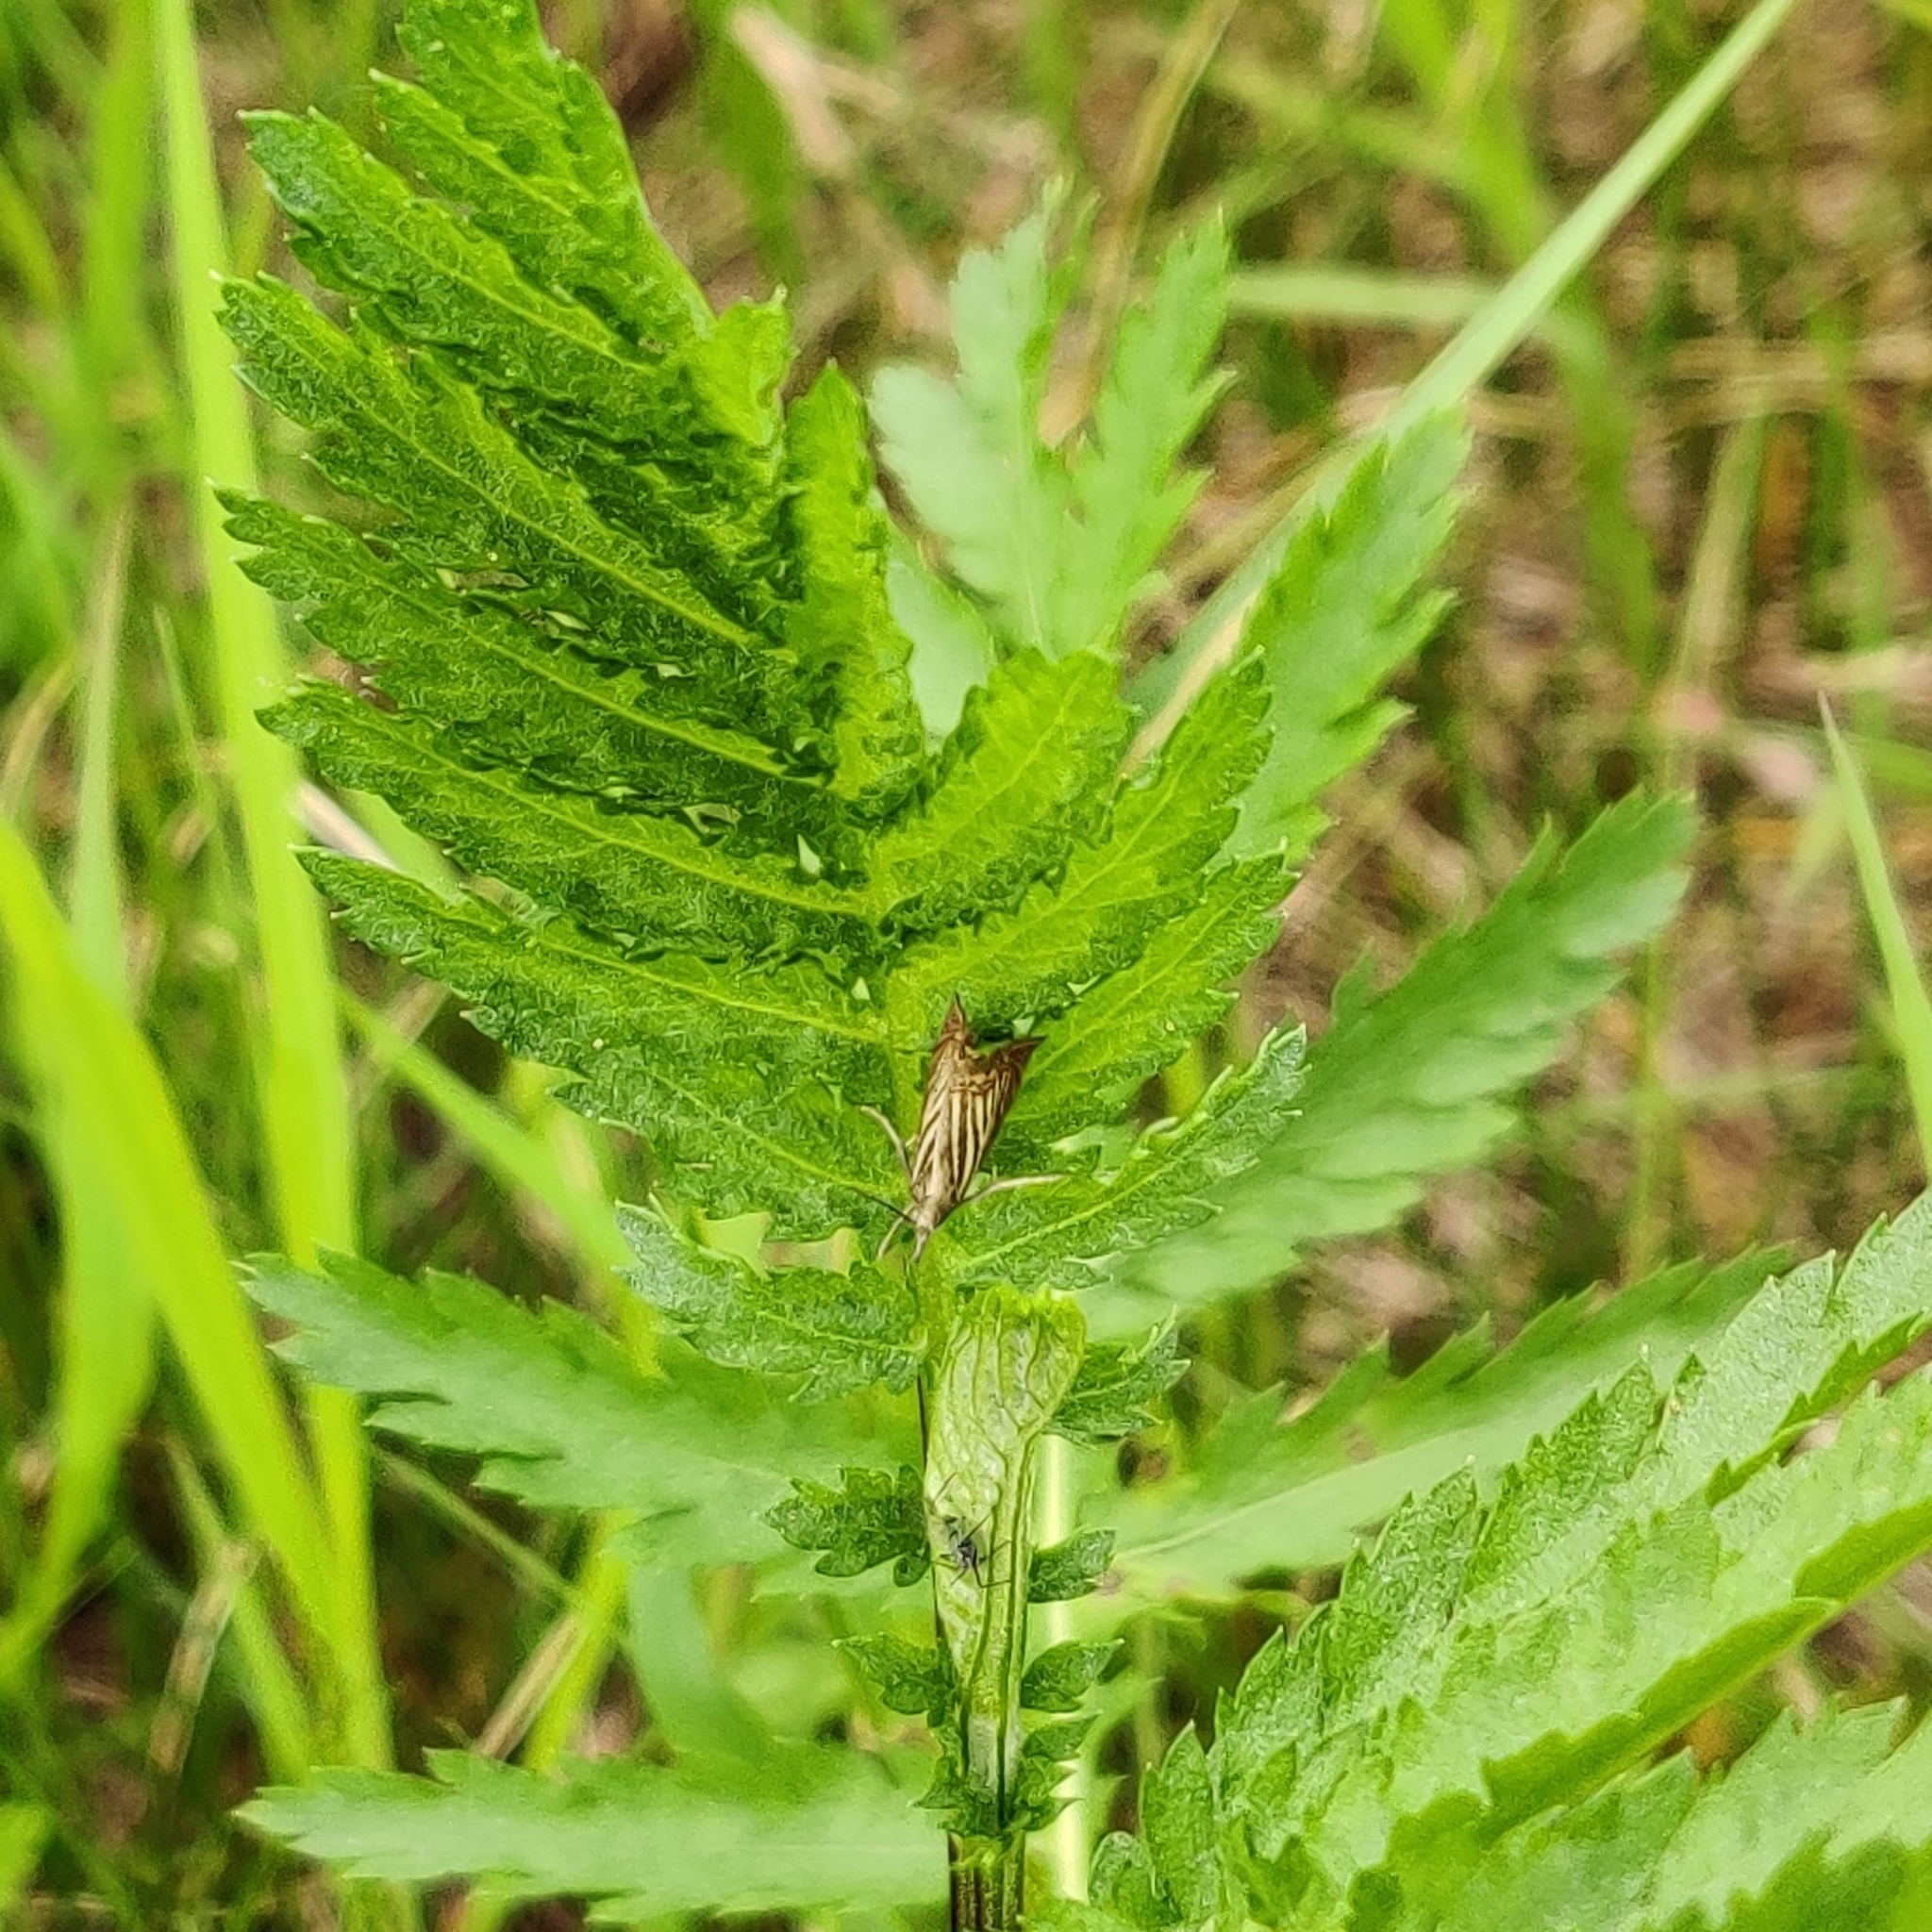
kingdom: Animalia
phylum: Arthropoda
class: Insecta
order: Lepidoptera
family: Crambidae
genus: Chrysoteuchia
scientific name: Chrysoteuchia culmella
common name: Garden grass-veneer
